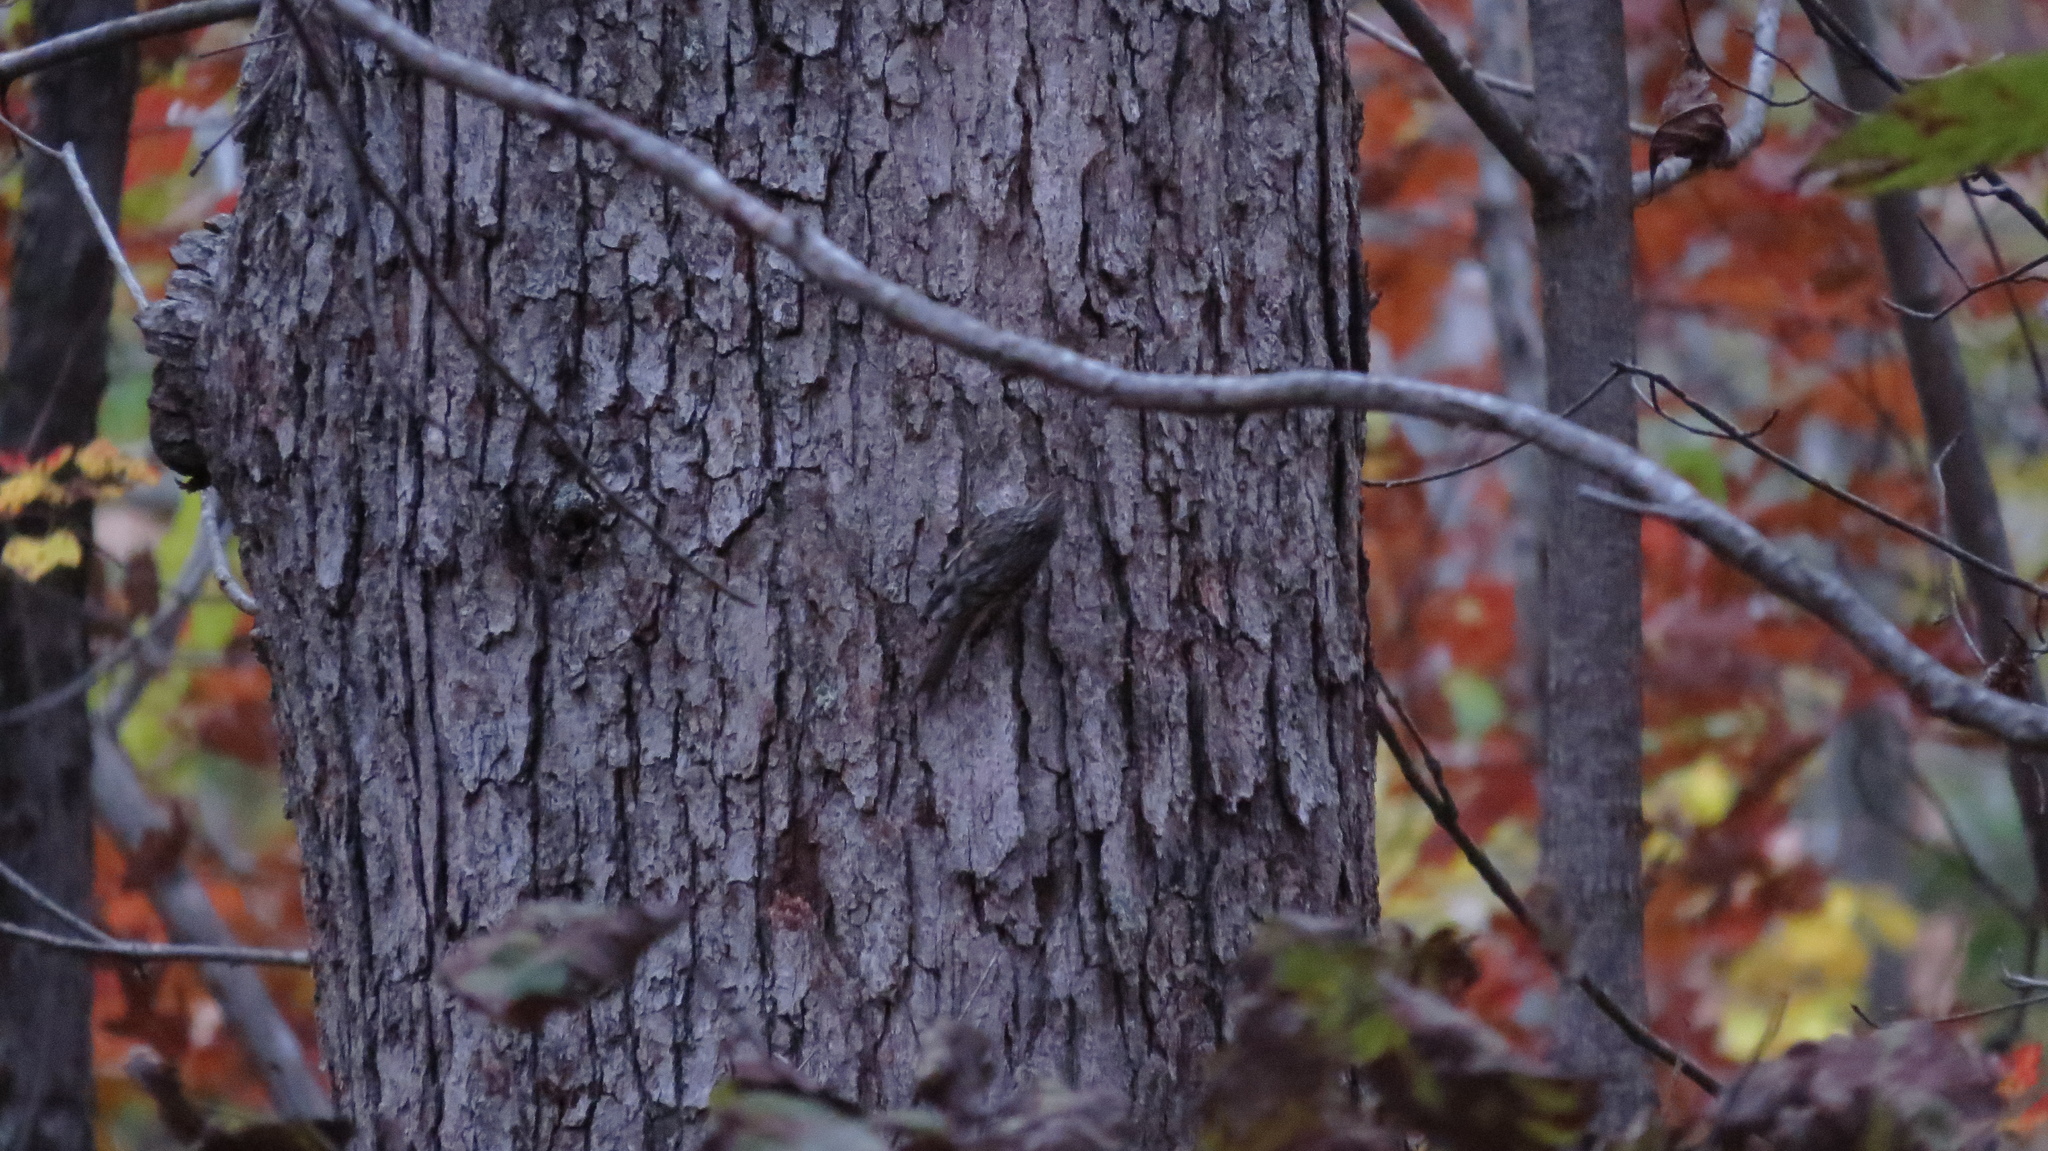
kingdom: Animalia
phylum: Chordata
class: Aves
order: Passeriformes
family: Certhiidae
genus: Certhia
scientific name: Certhia americana
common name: Brown creeper
